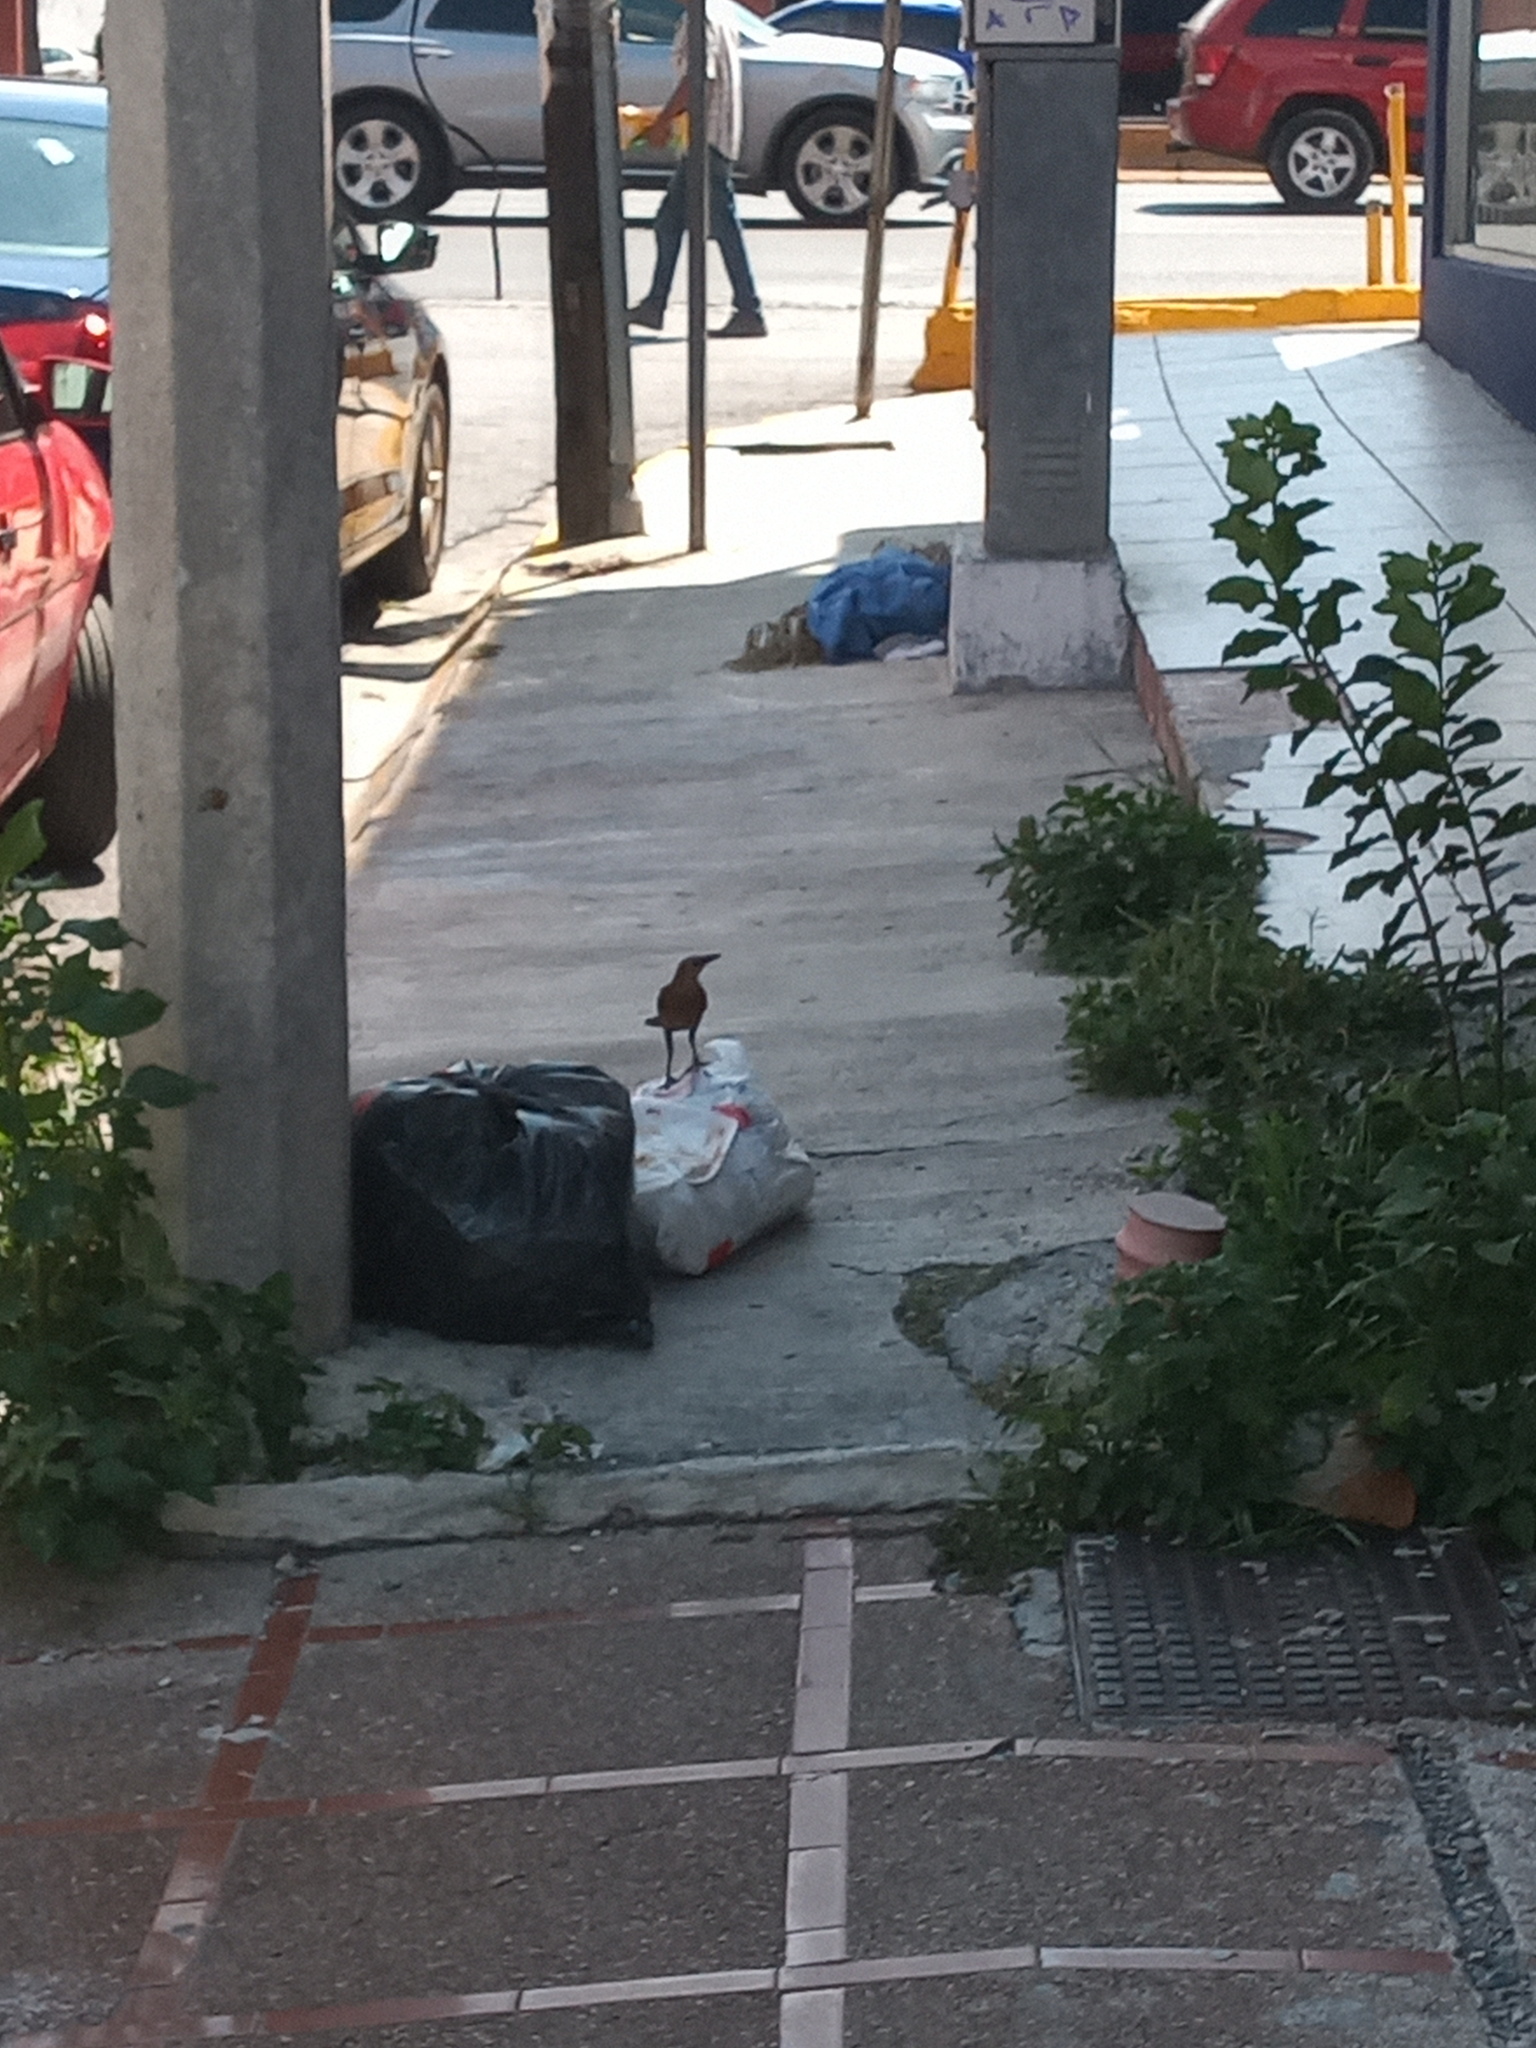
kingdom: Animalia
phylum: Chordata
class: Aves
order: Passeriformes
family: Icteridae
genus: Quiscalus
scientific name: Quiscalus mexicanus
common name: Great-tailed grackle
